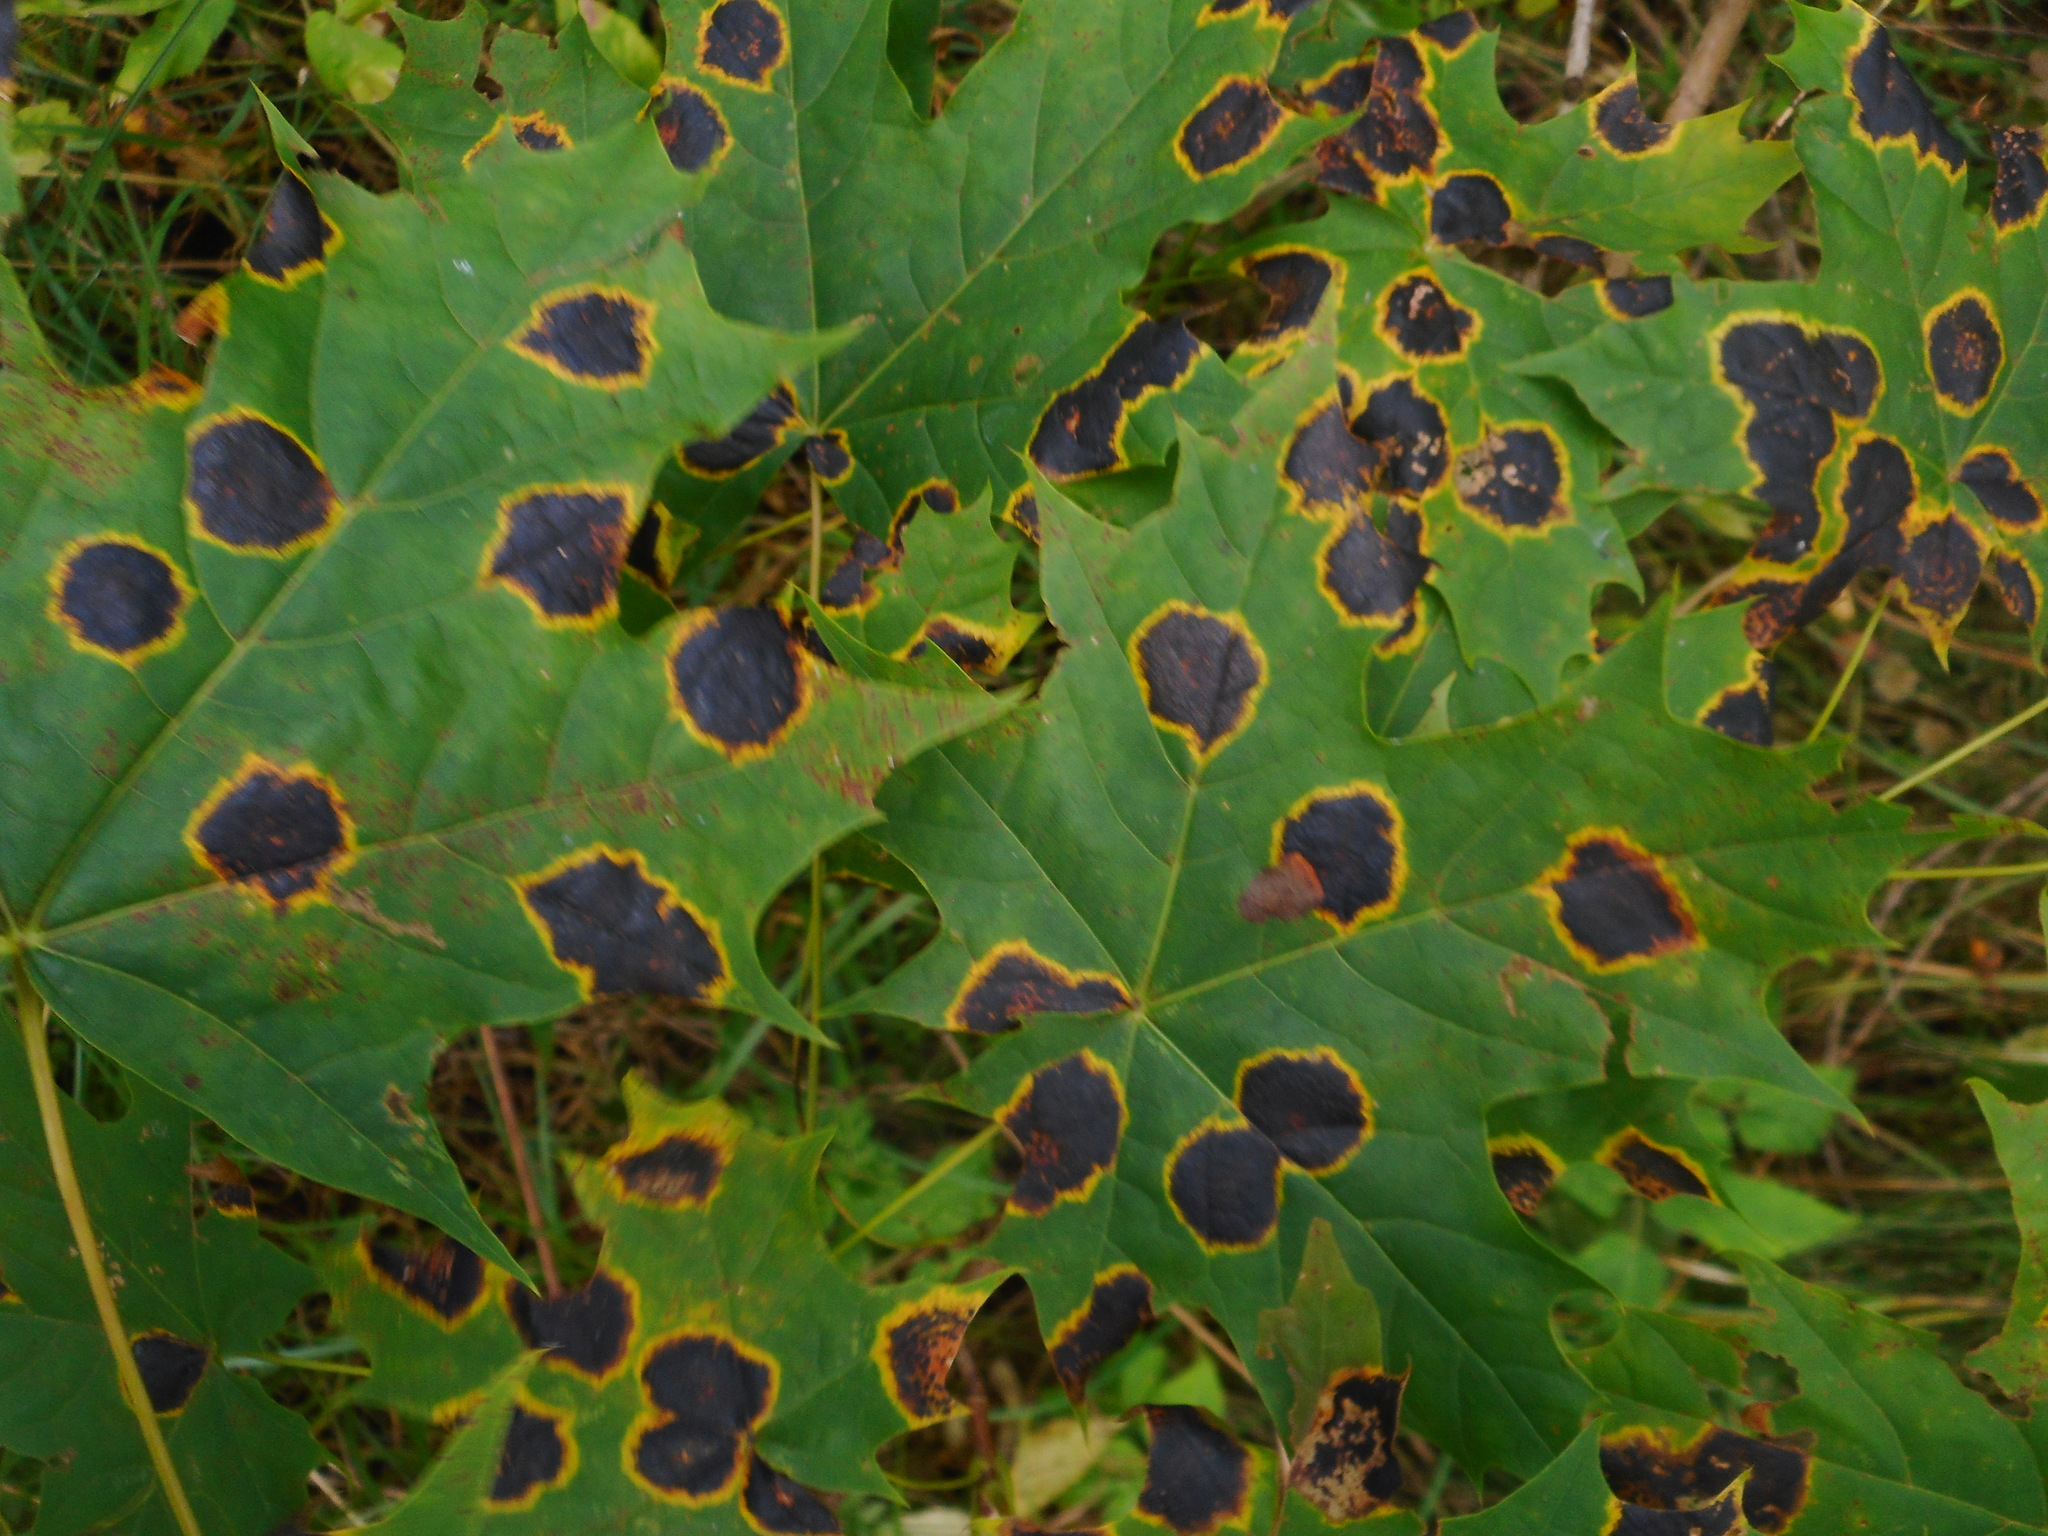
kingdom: Fungi
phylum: Ascomycota
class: Leotiomycetes
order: Rhytismatales
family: Rhytismataceae
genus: Rhytisma
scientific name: Rhytisma acerinum
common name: European tar spot
